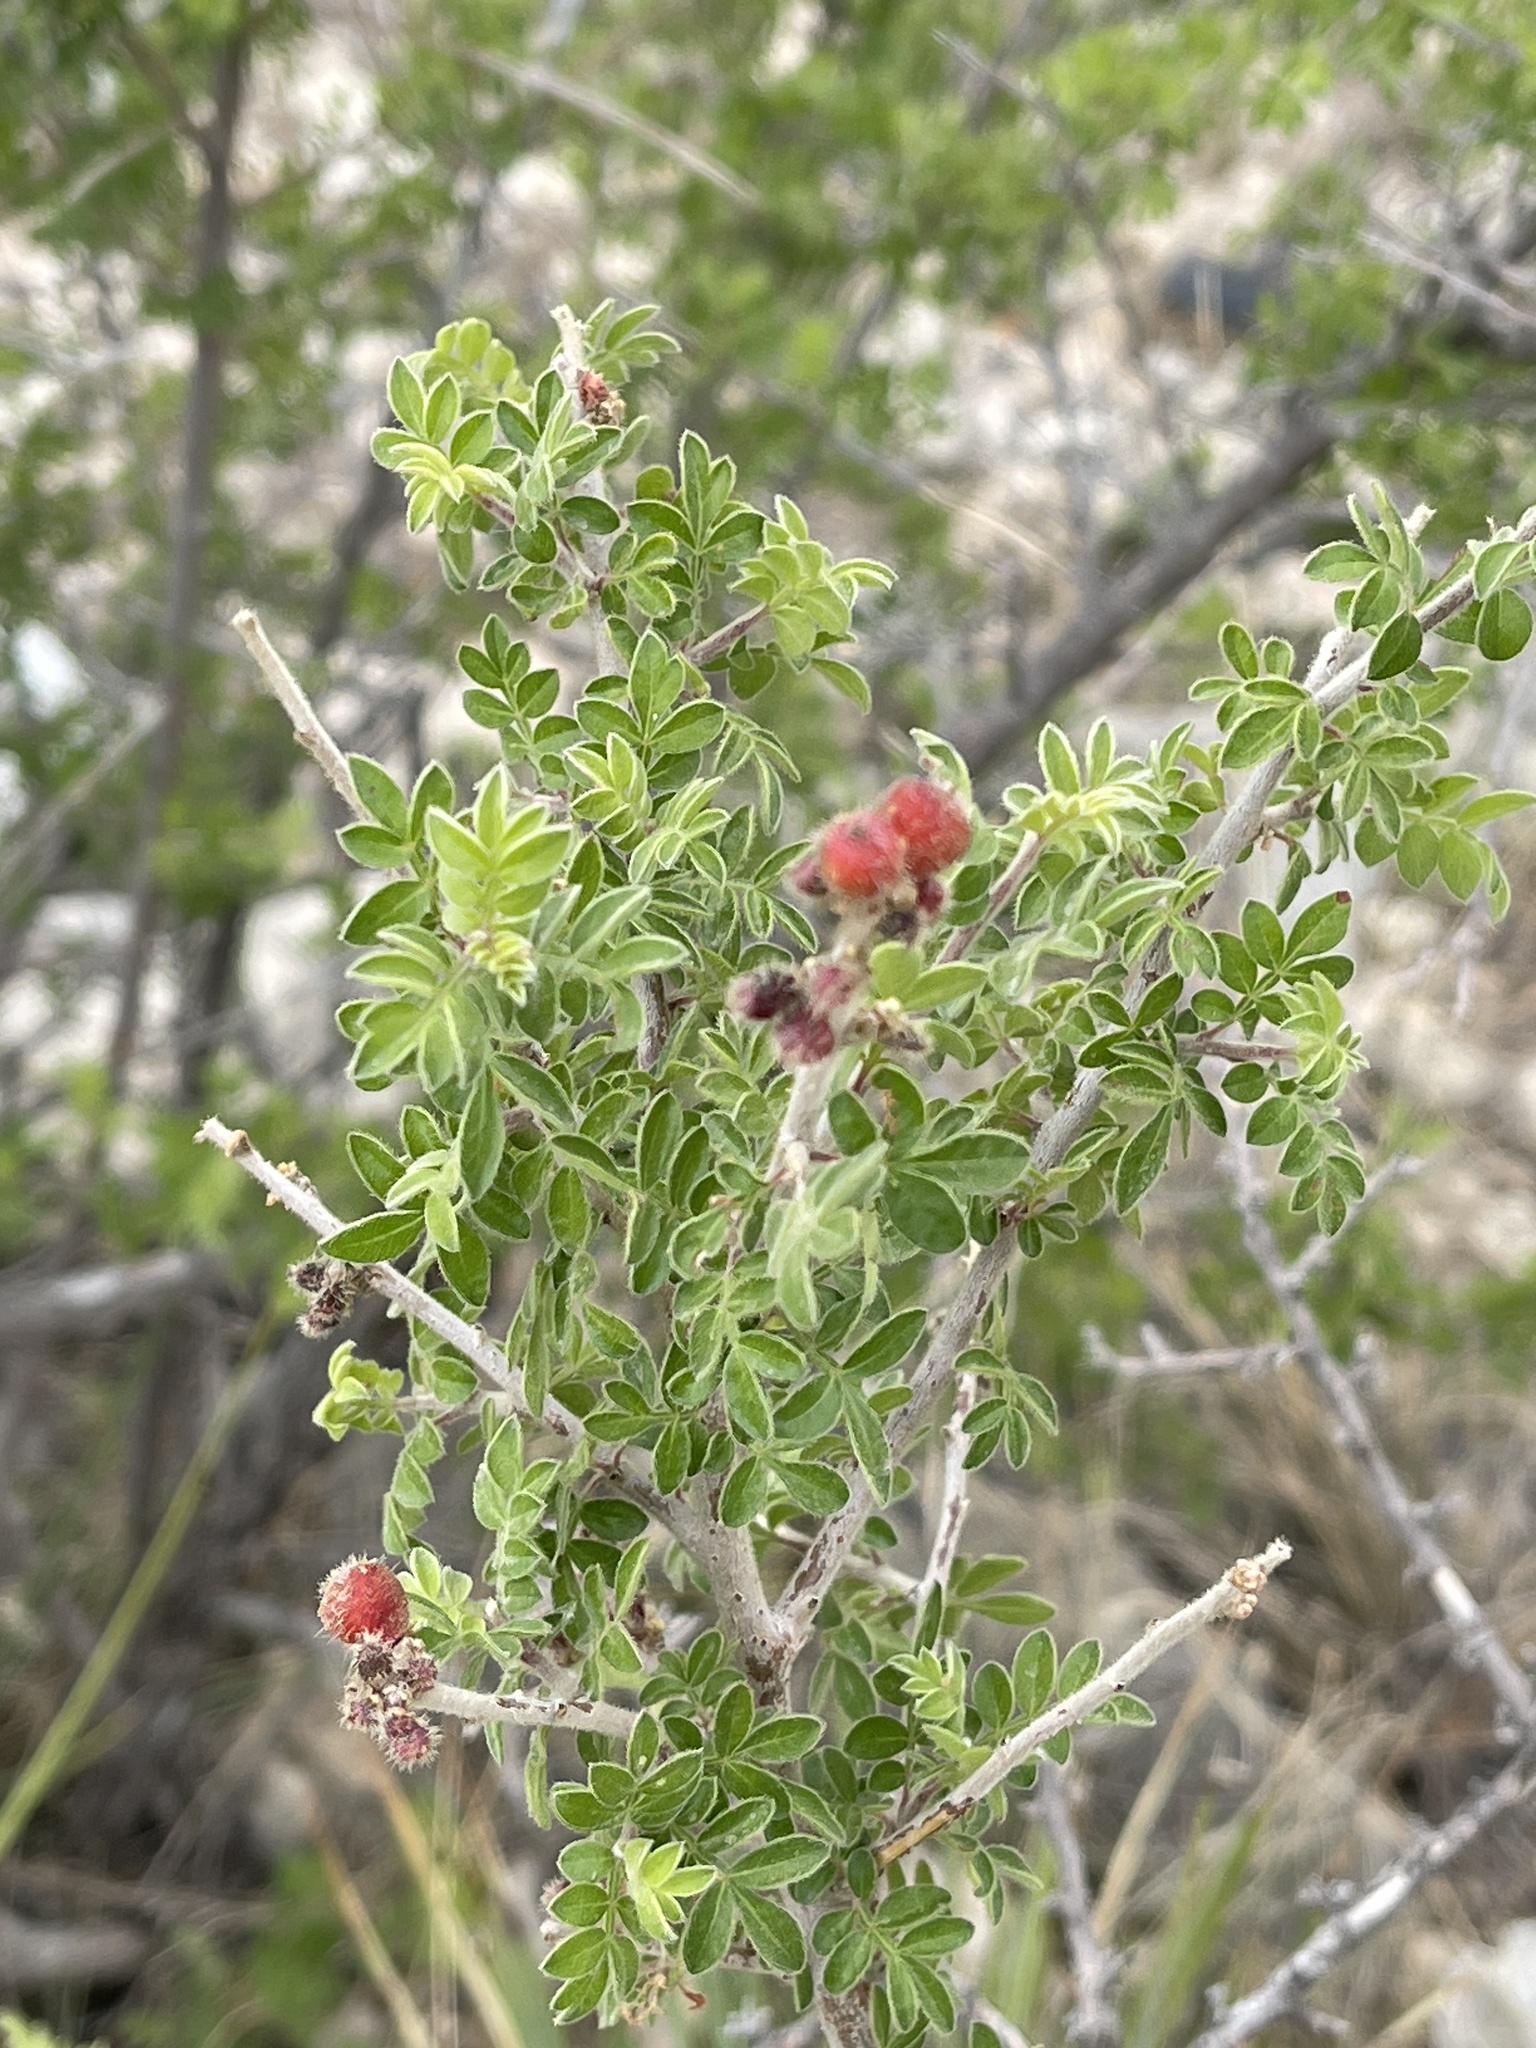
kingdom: Plantae
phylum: Tracheophyta
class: Magnoliopsida
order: Sapindales
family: Anacardiaceae
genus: Rhus
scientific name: Rhus microphylla
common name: Desert sumac
